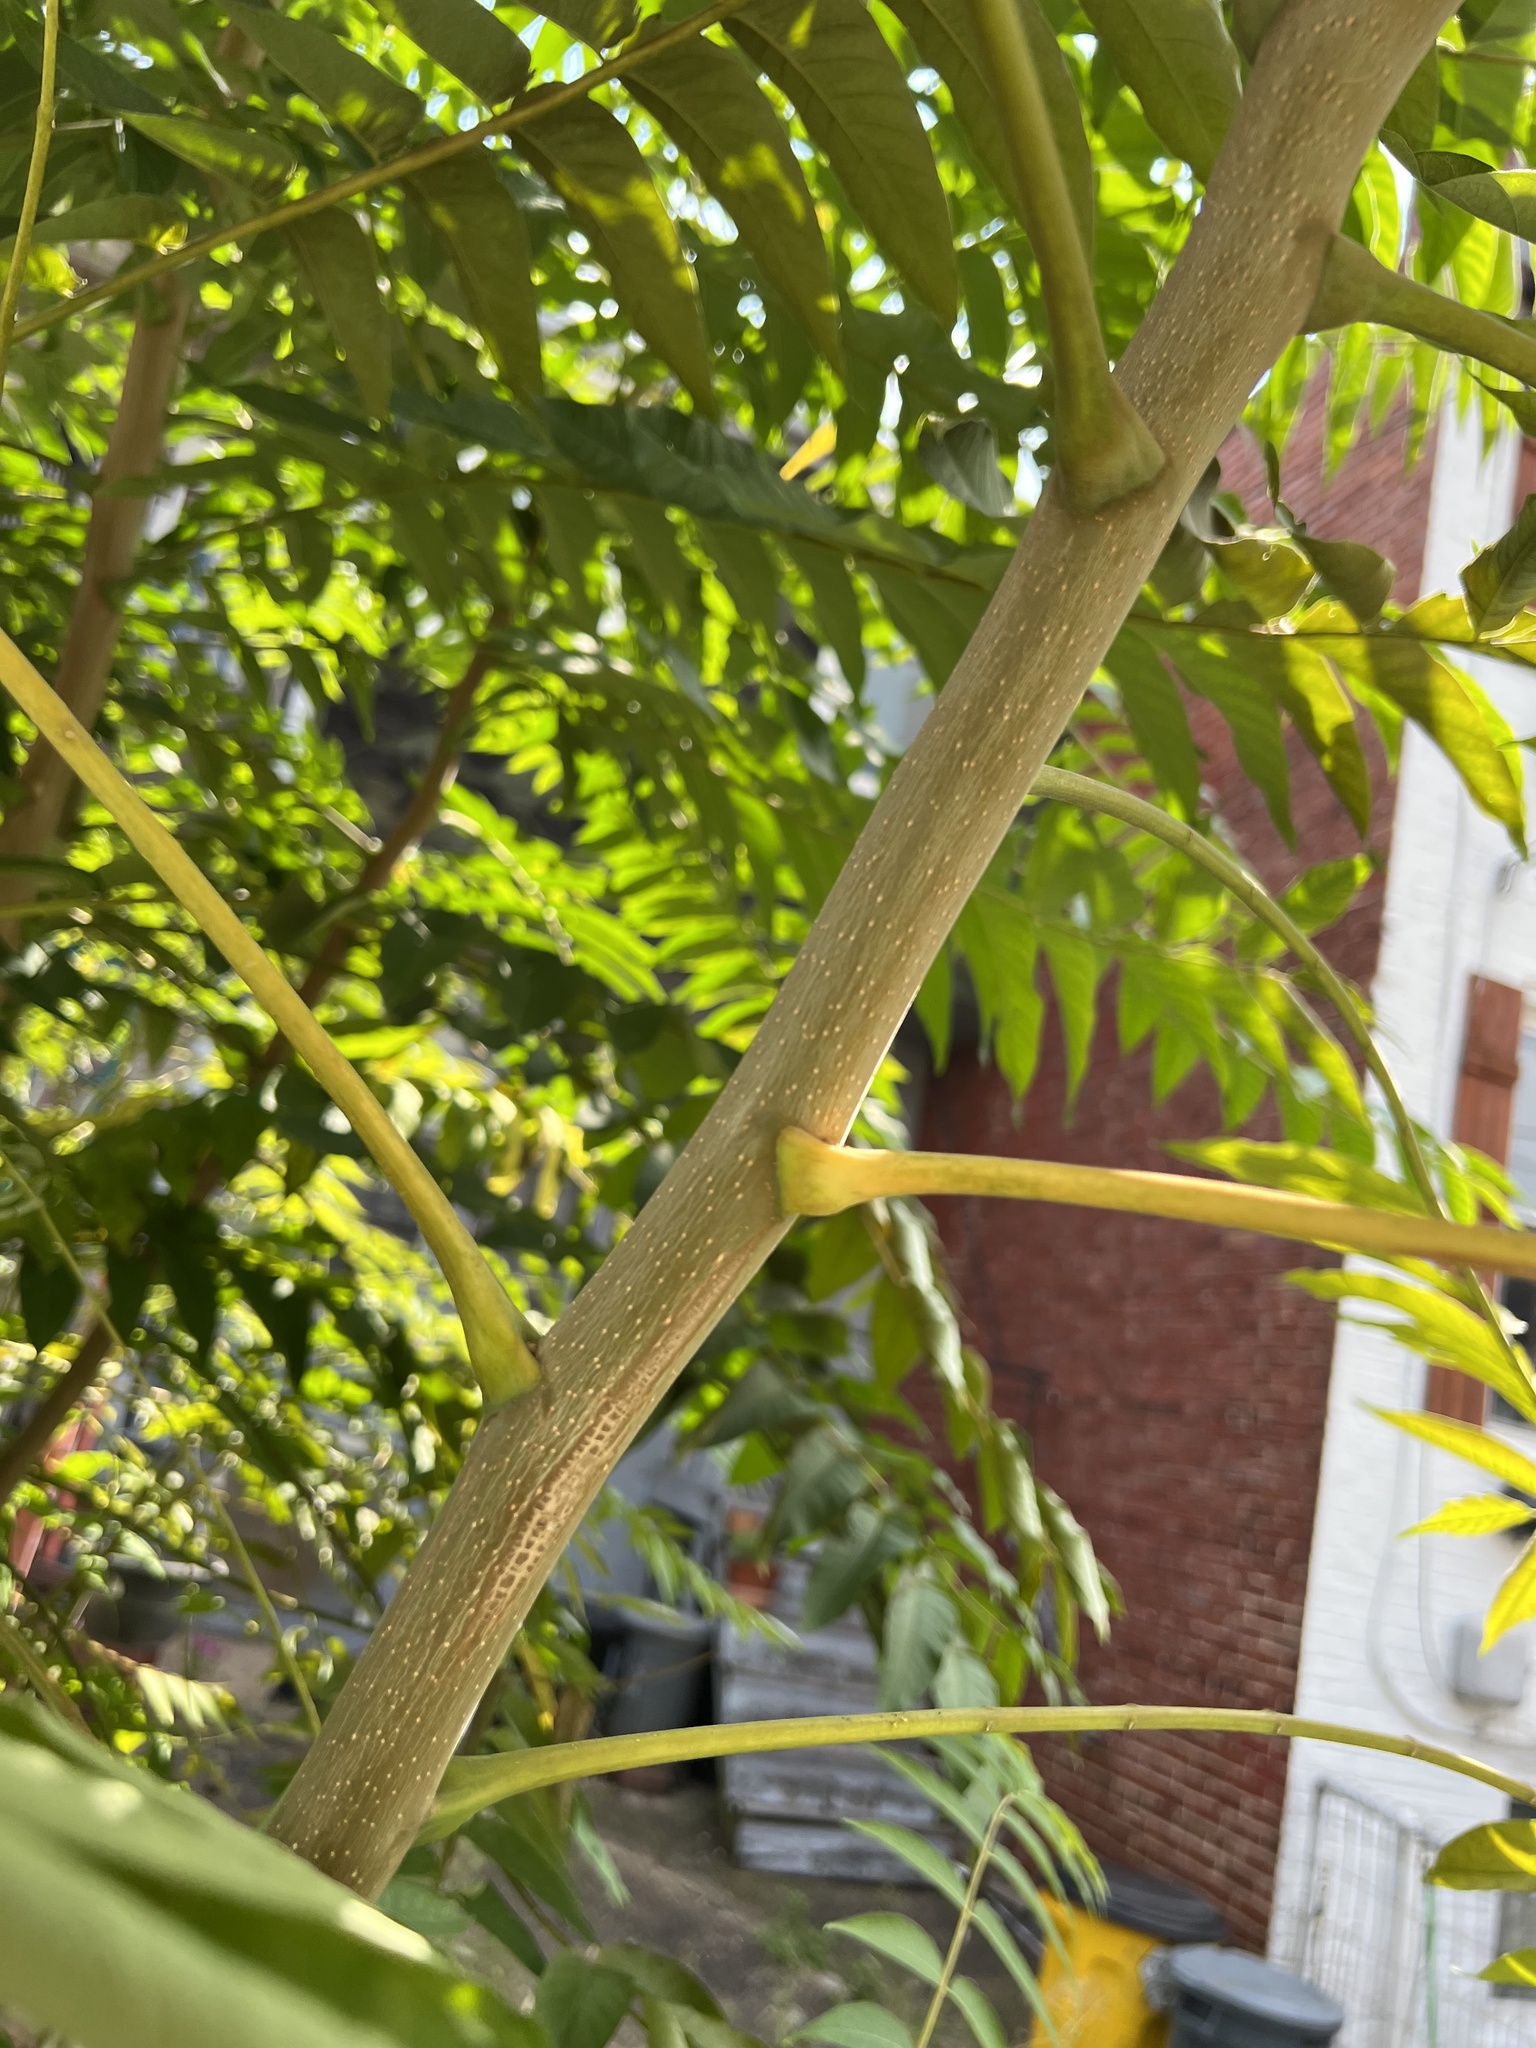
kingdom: Plantae
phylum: Tracheophyta
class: Magnoliopsida
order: Sapindales
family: Simaroubaceae
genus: Ailanthus
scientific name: Ailanthus altissima
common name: Tree-of-heaven
